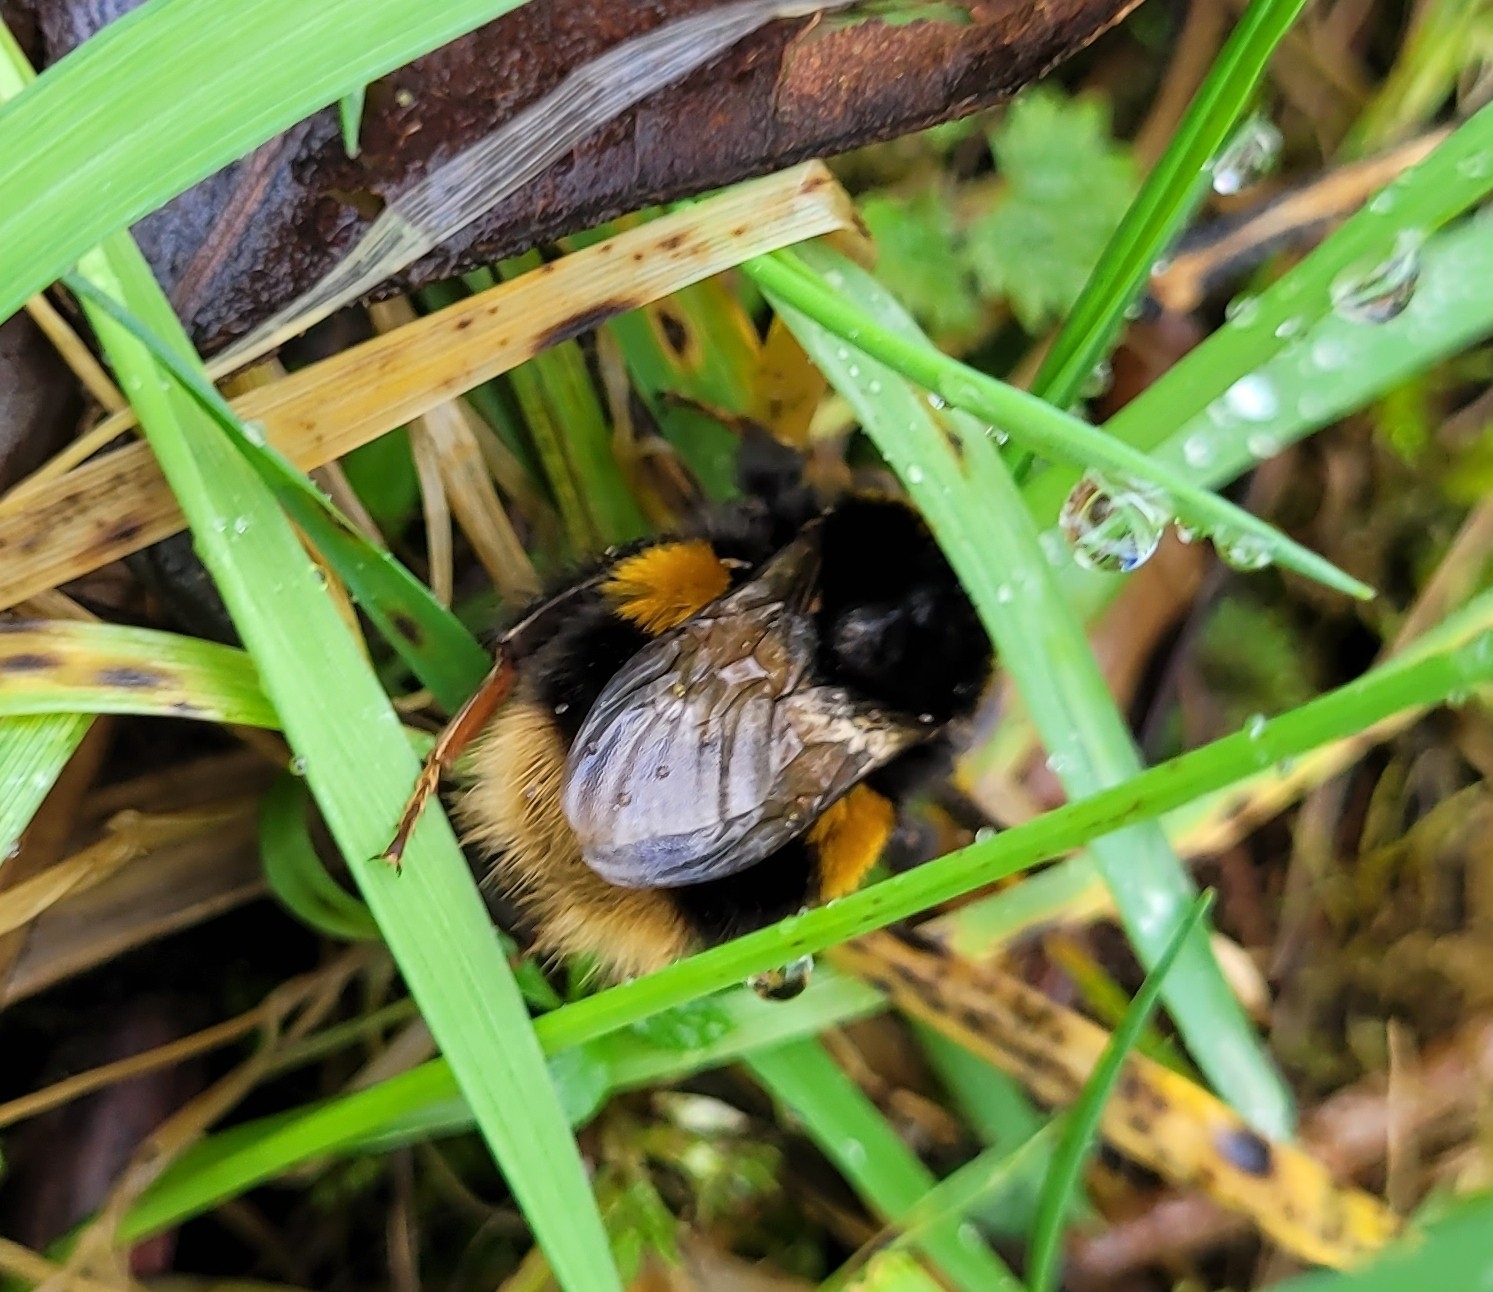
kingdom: Animalia
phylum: Arthropoda
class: Insecta
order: Hymenoptera
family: Apidae
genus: Bombus
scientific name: Bombus terrestris
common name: Buff-tailed bumblebee
